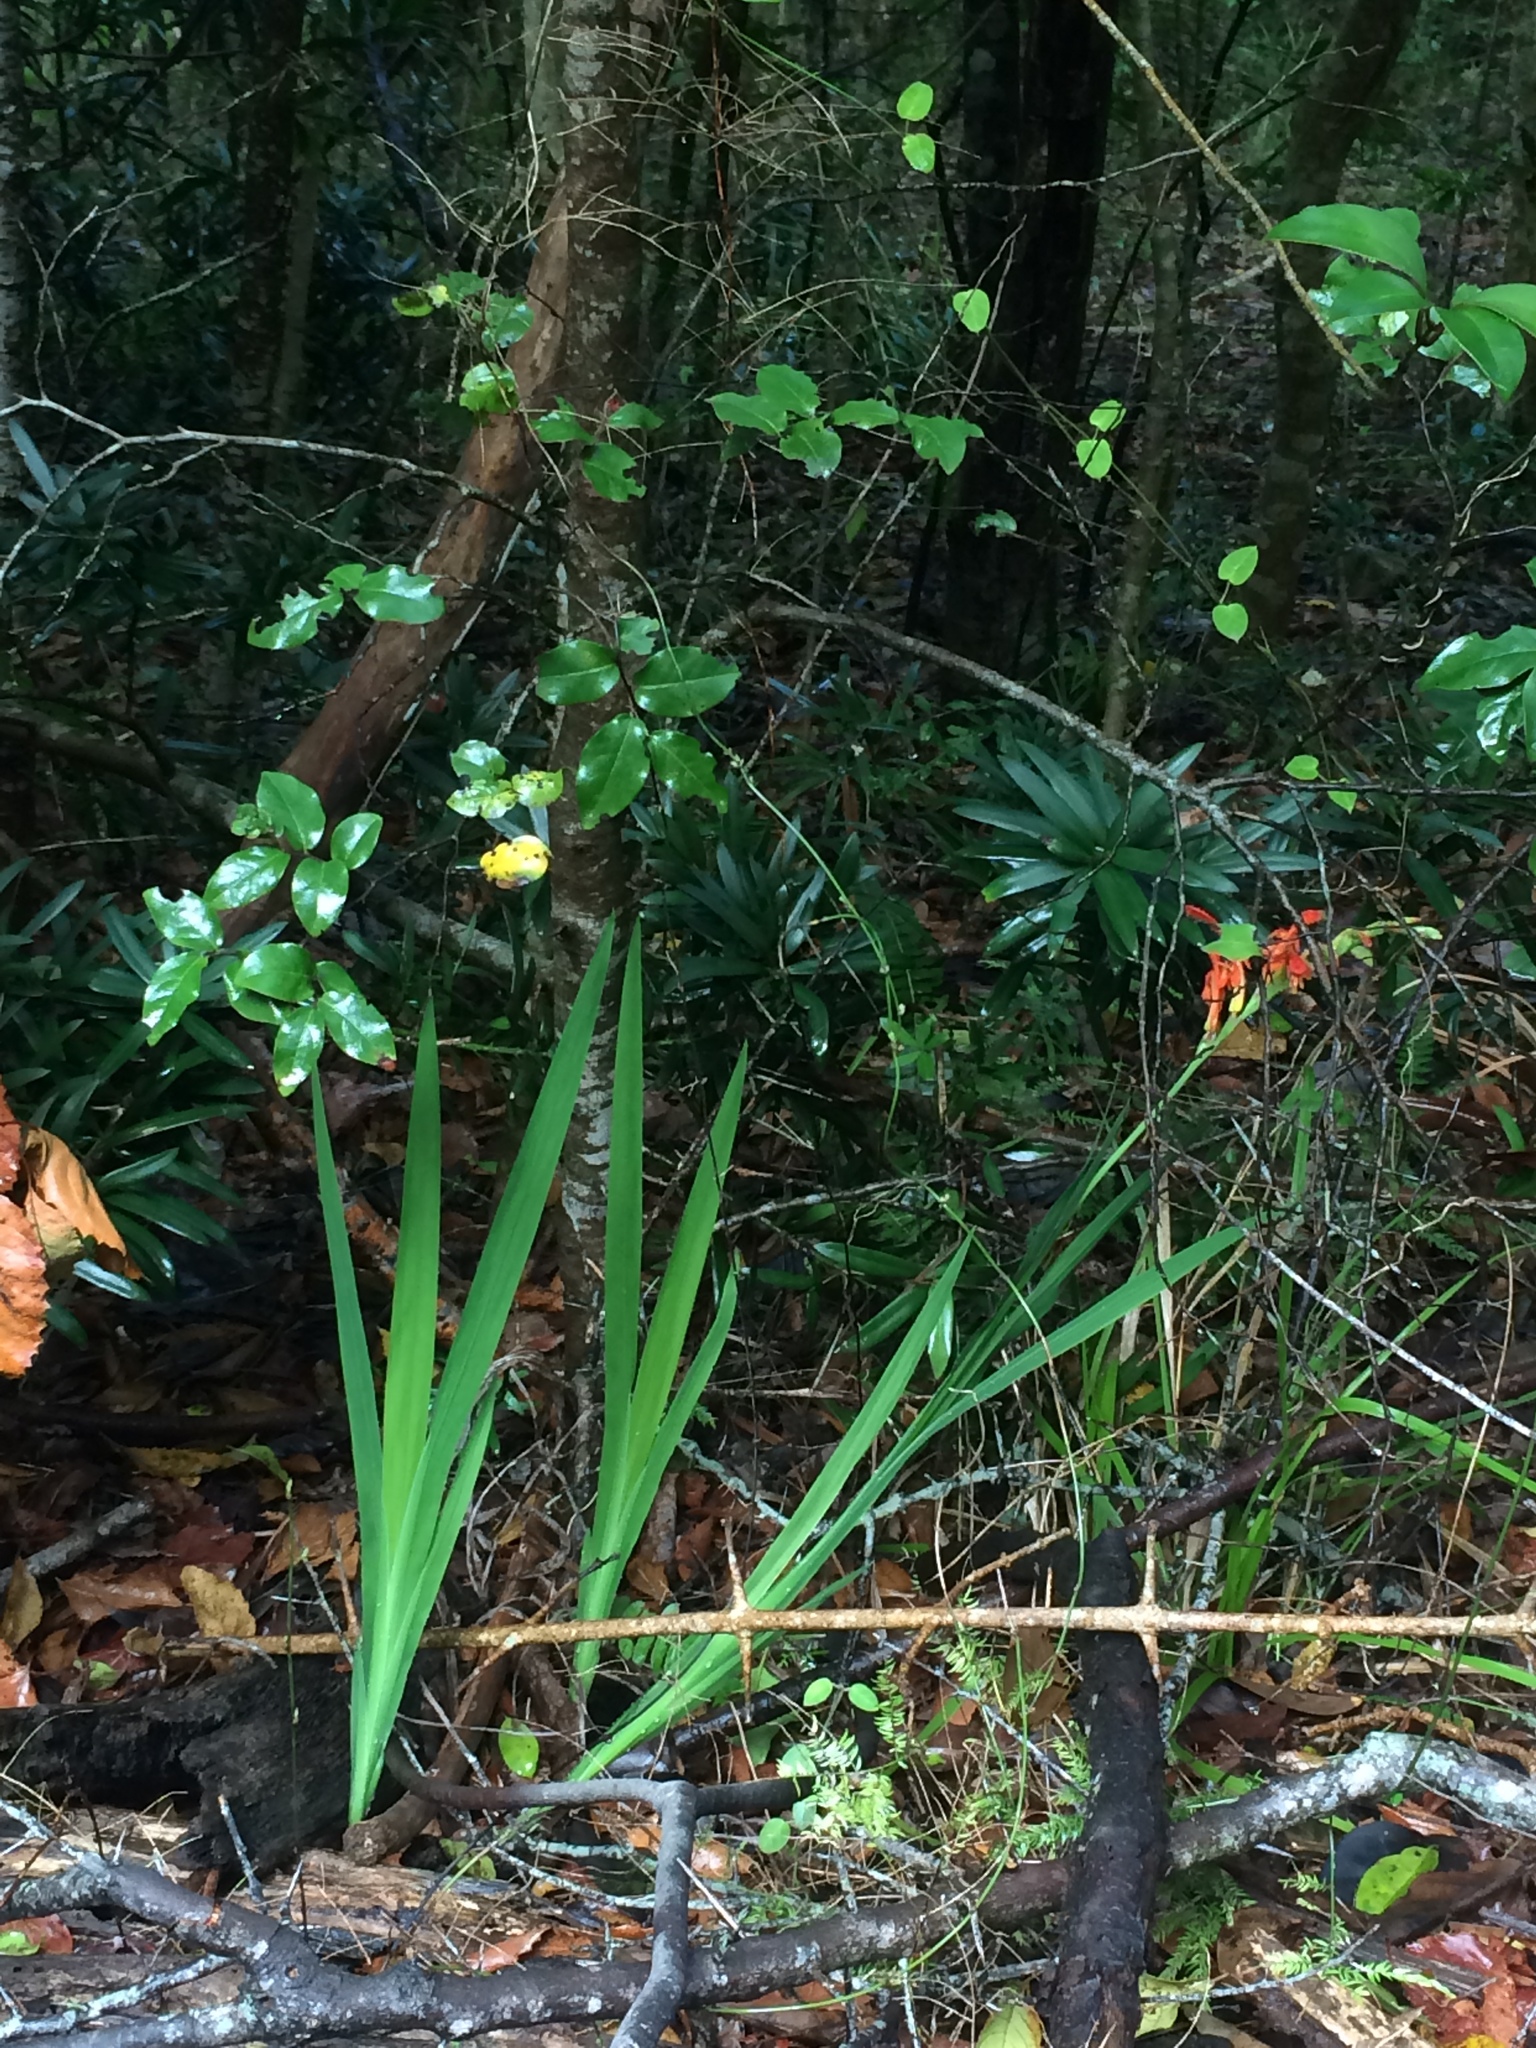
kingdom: Plantae
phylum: Tracheophyta
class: Liliopsida
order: Asparagales
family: Iridaceae
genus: Chasmanthe
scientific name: Chasmanthe aethiopica
